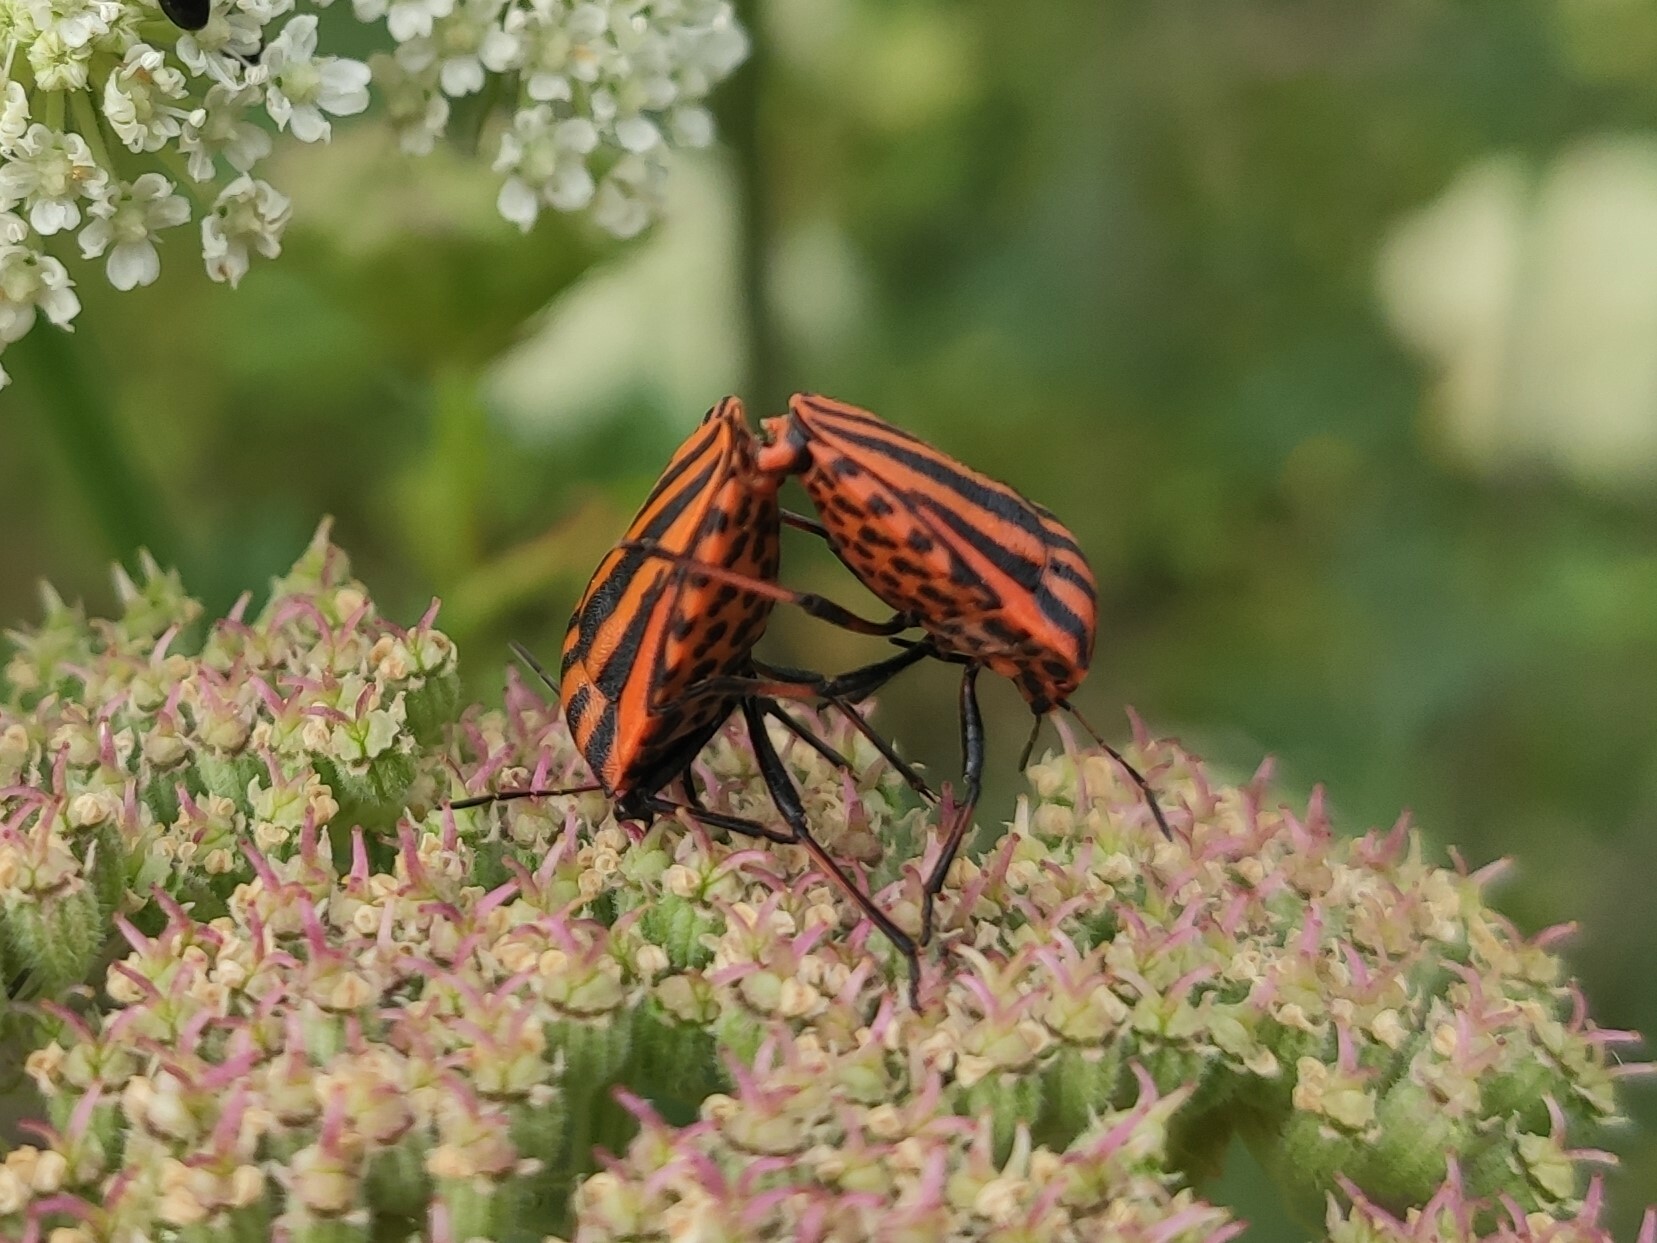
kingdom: Animalia
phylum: Arthropoda
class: Insecta
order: Hemiptera
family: Pentatomidae
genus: Graphosoma
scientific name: Graphosoma italicum
